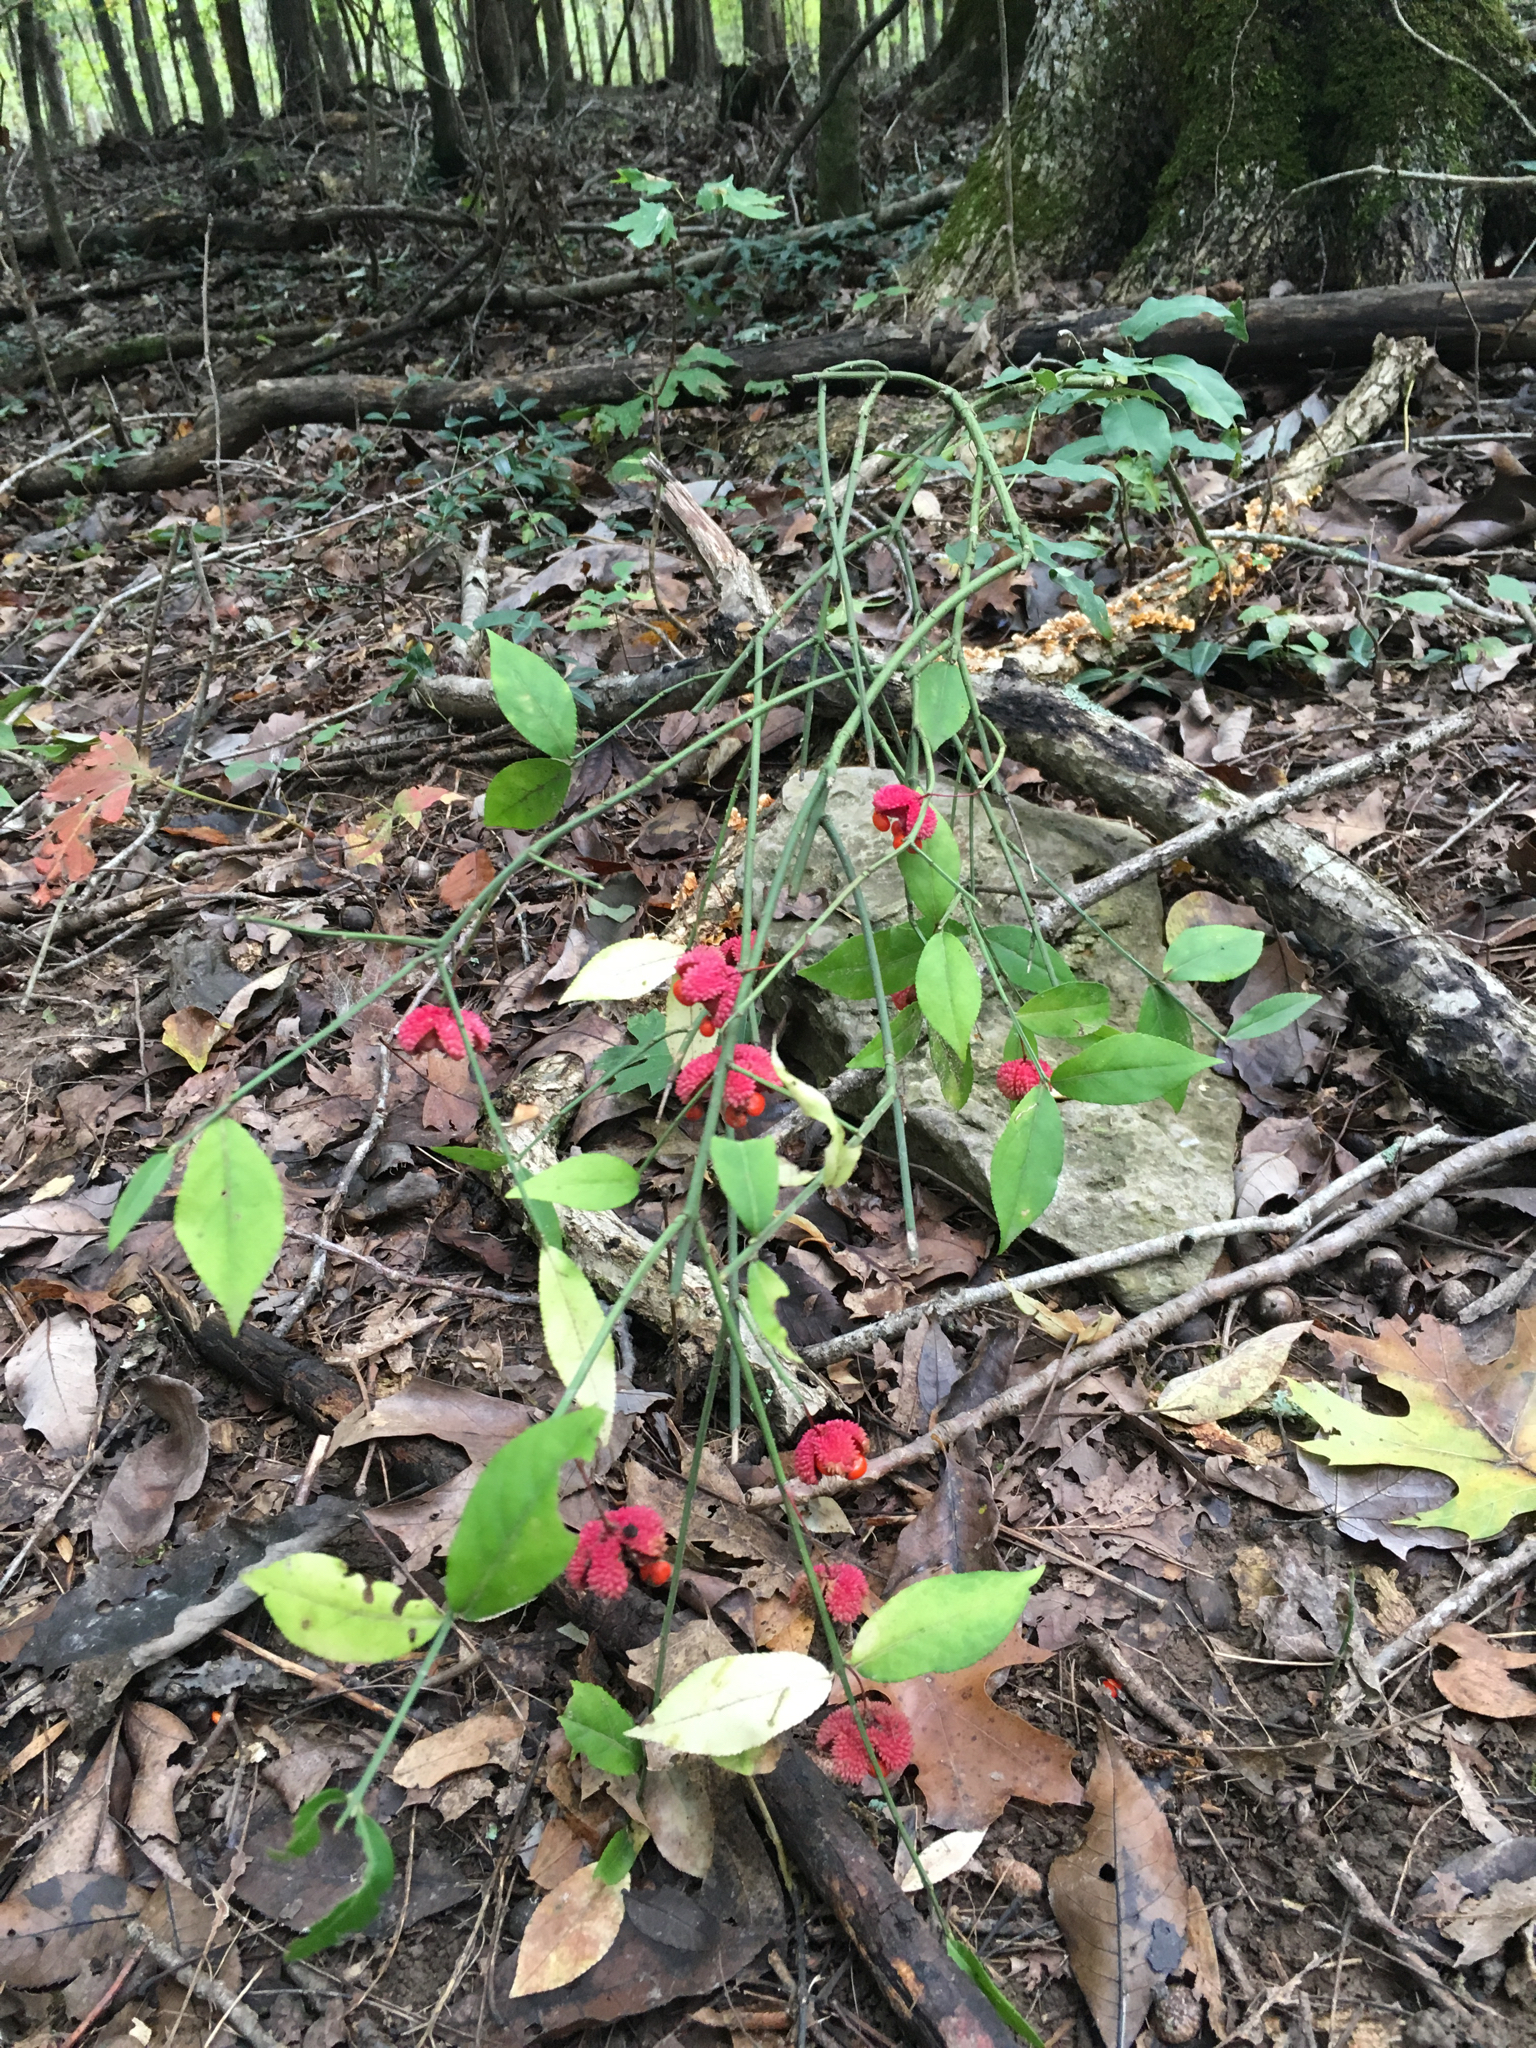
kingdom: Plantae
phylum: Tracheophyta
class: Magnoliopsida
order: Celastrales
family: Celastraceae
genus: Euonymus
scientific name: Euonymus americanus
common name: Bursting-heart
